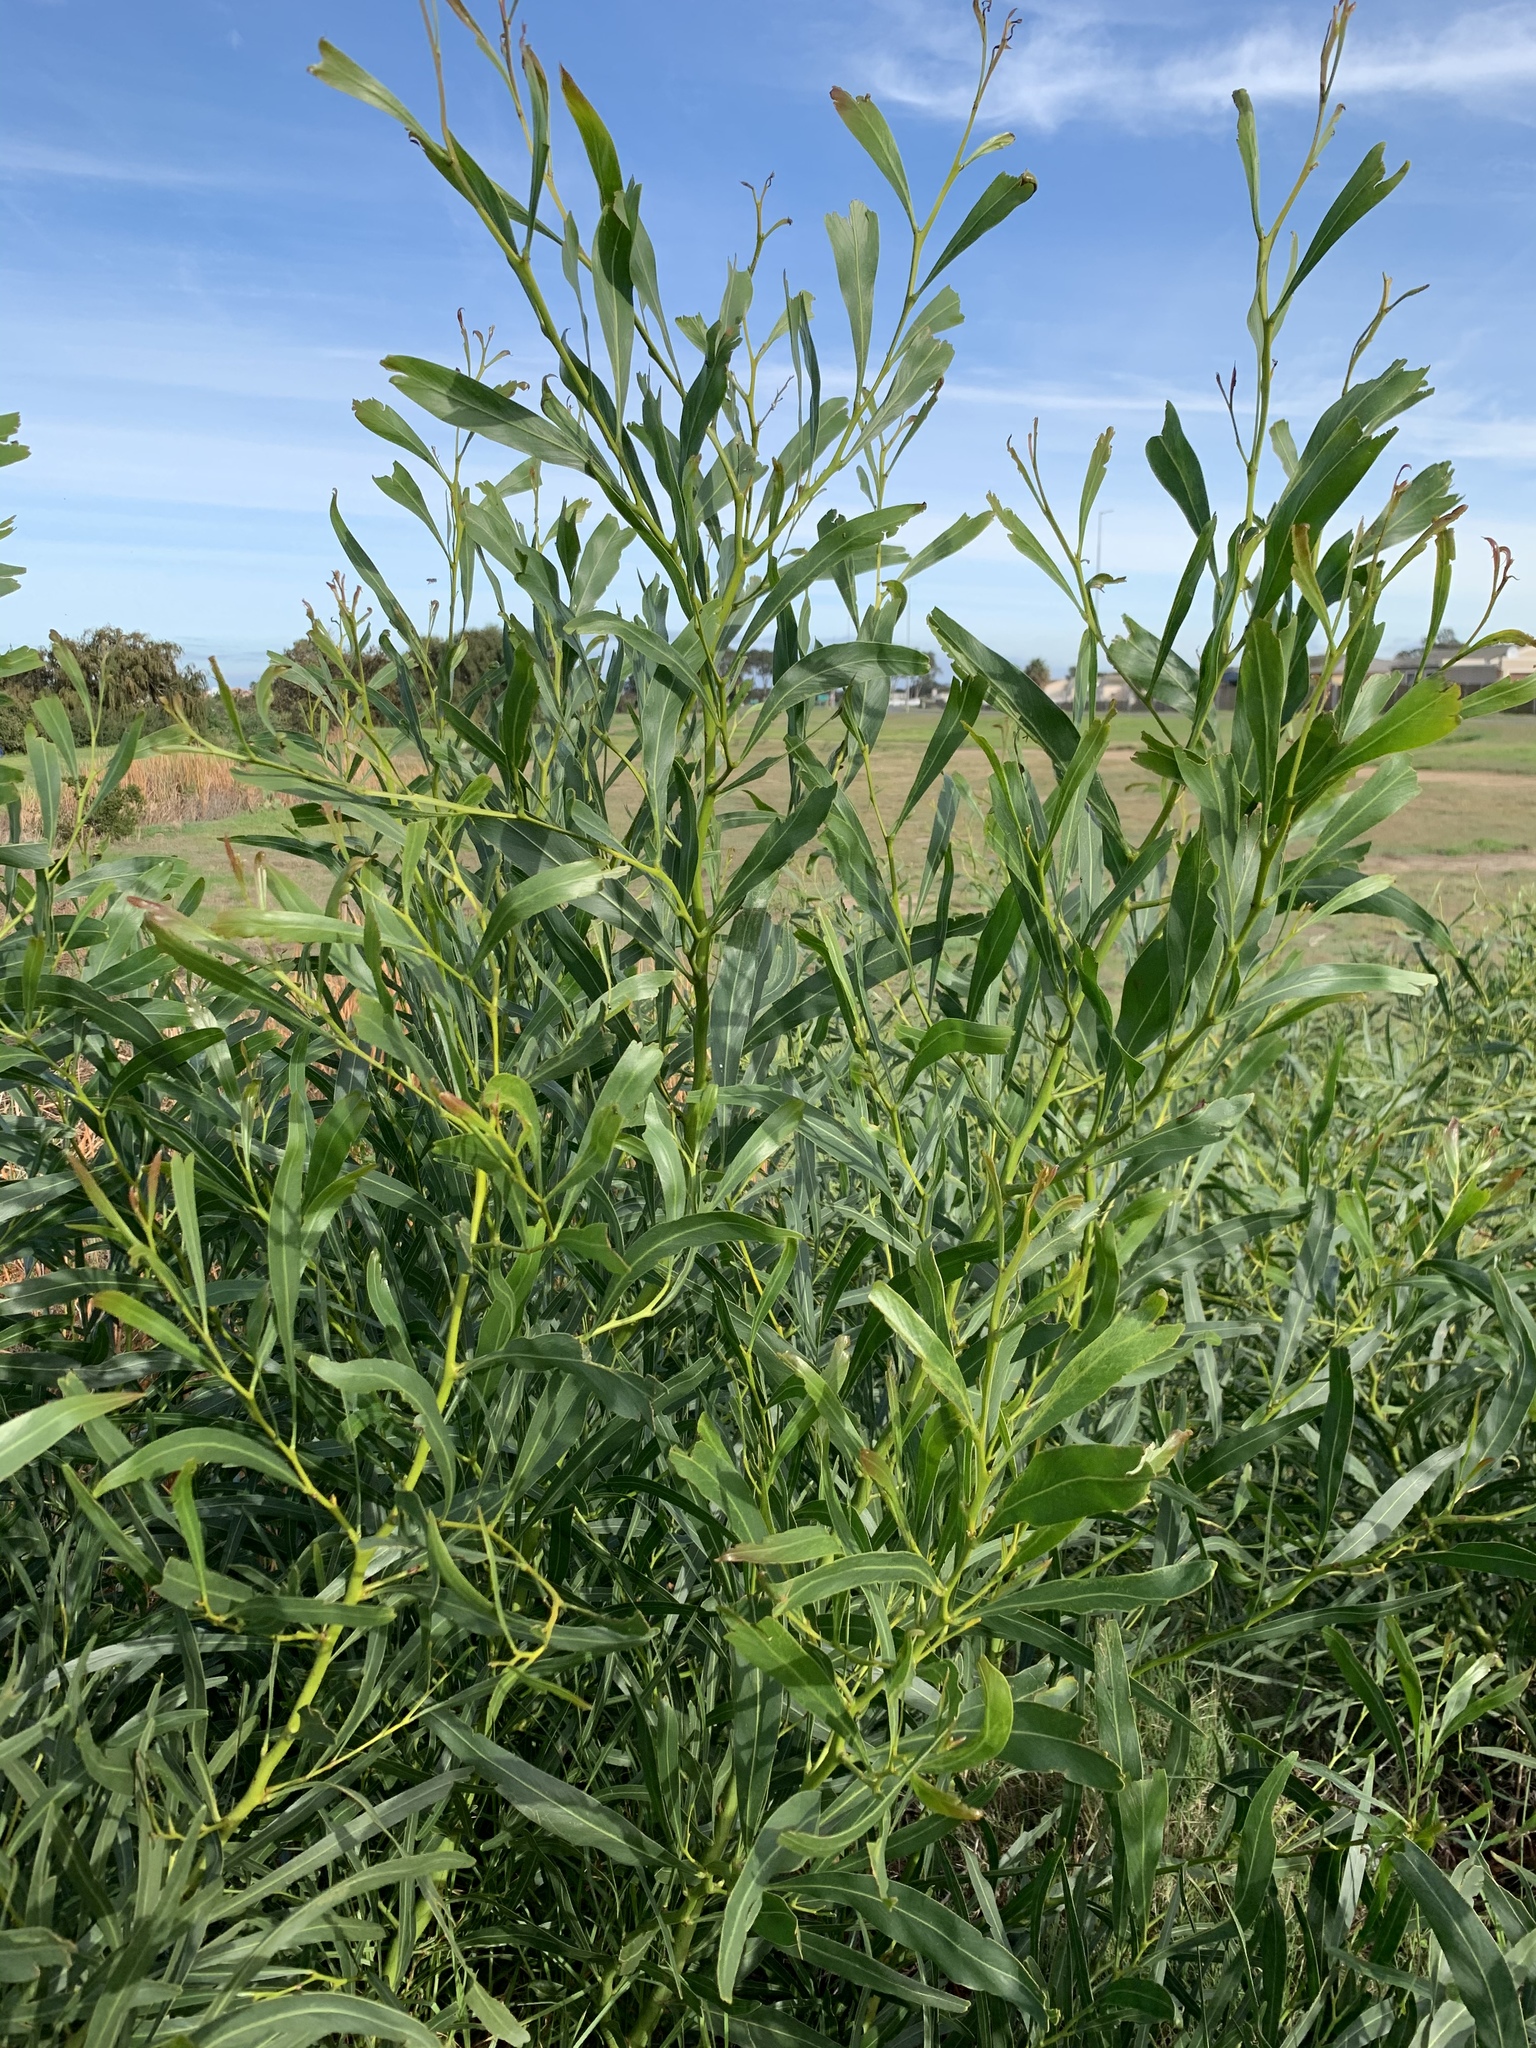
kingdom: Plantae
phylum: Tracheophyta
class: Magnoliopsida
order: Fabales
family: Fabaceae
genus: Acacia
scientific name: Acacia saligna
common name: Orange wattle
